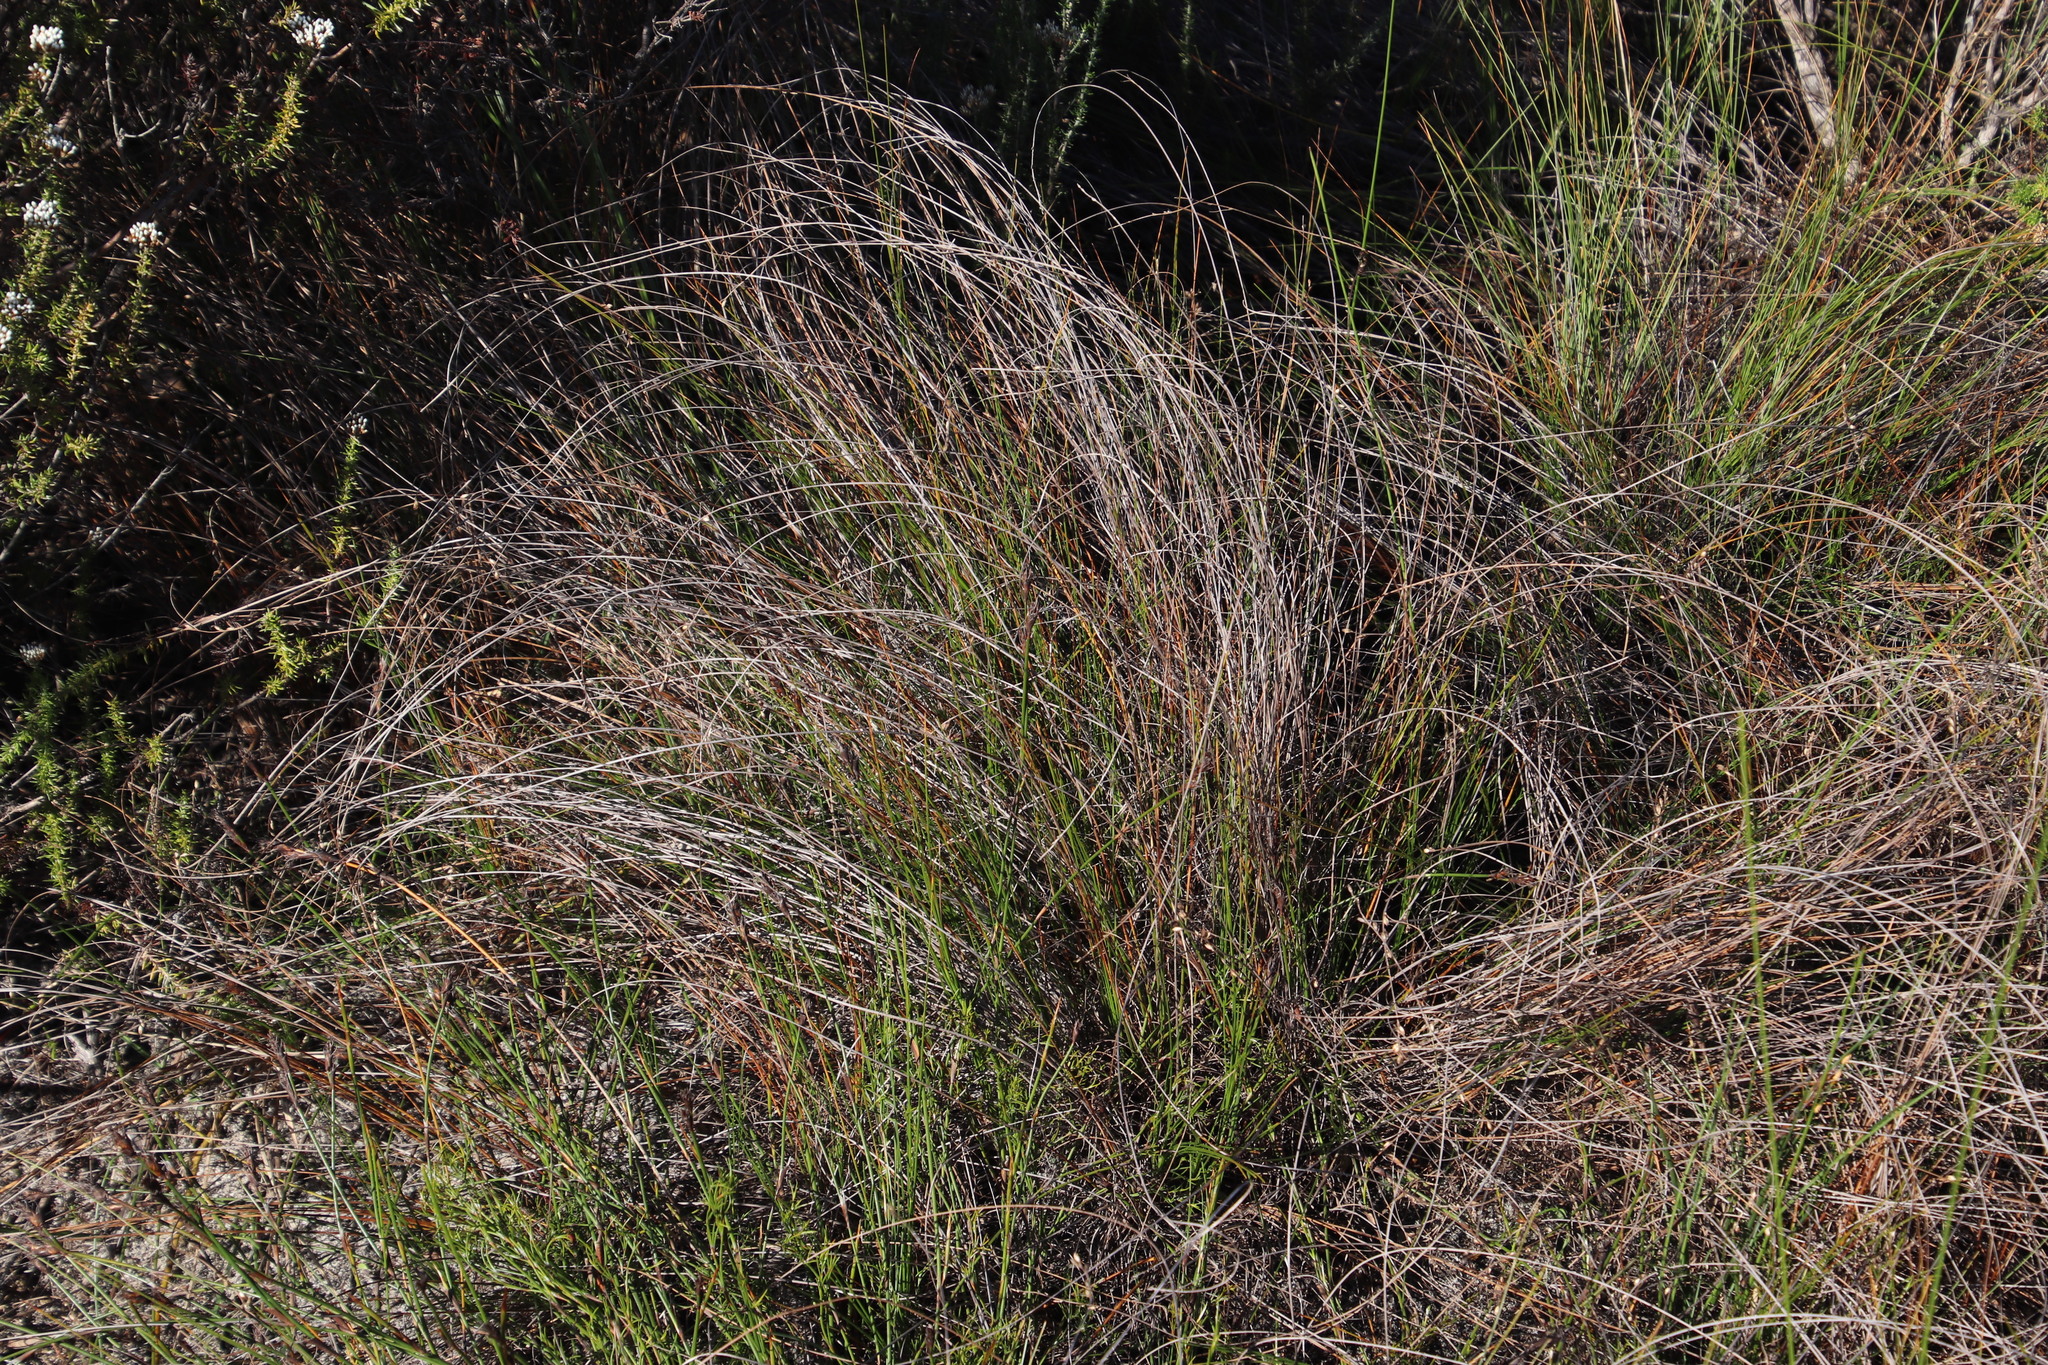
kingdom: Plantae
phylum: Tracheophyta
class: Liliopsida
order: Poales
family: Cyperaceae
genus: Ficinia
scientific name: Ficinia secunda
